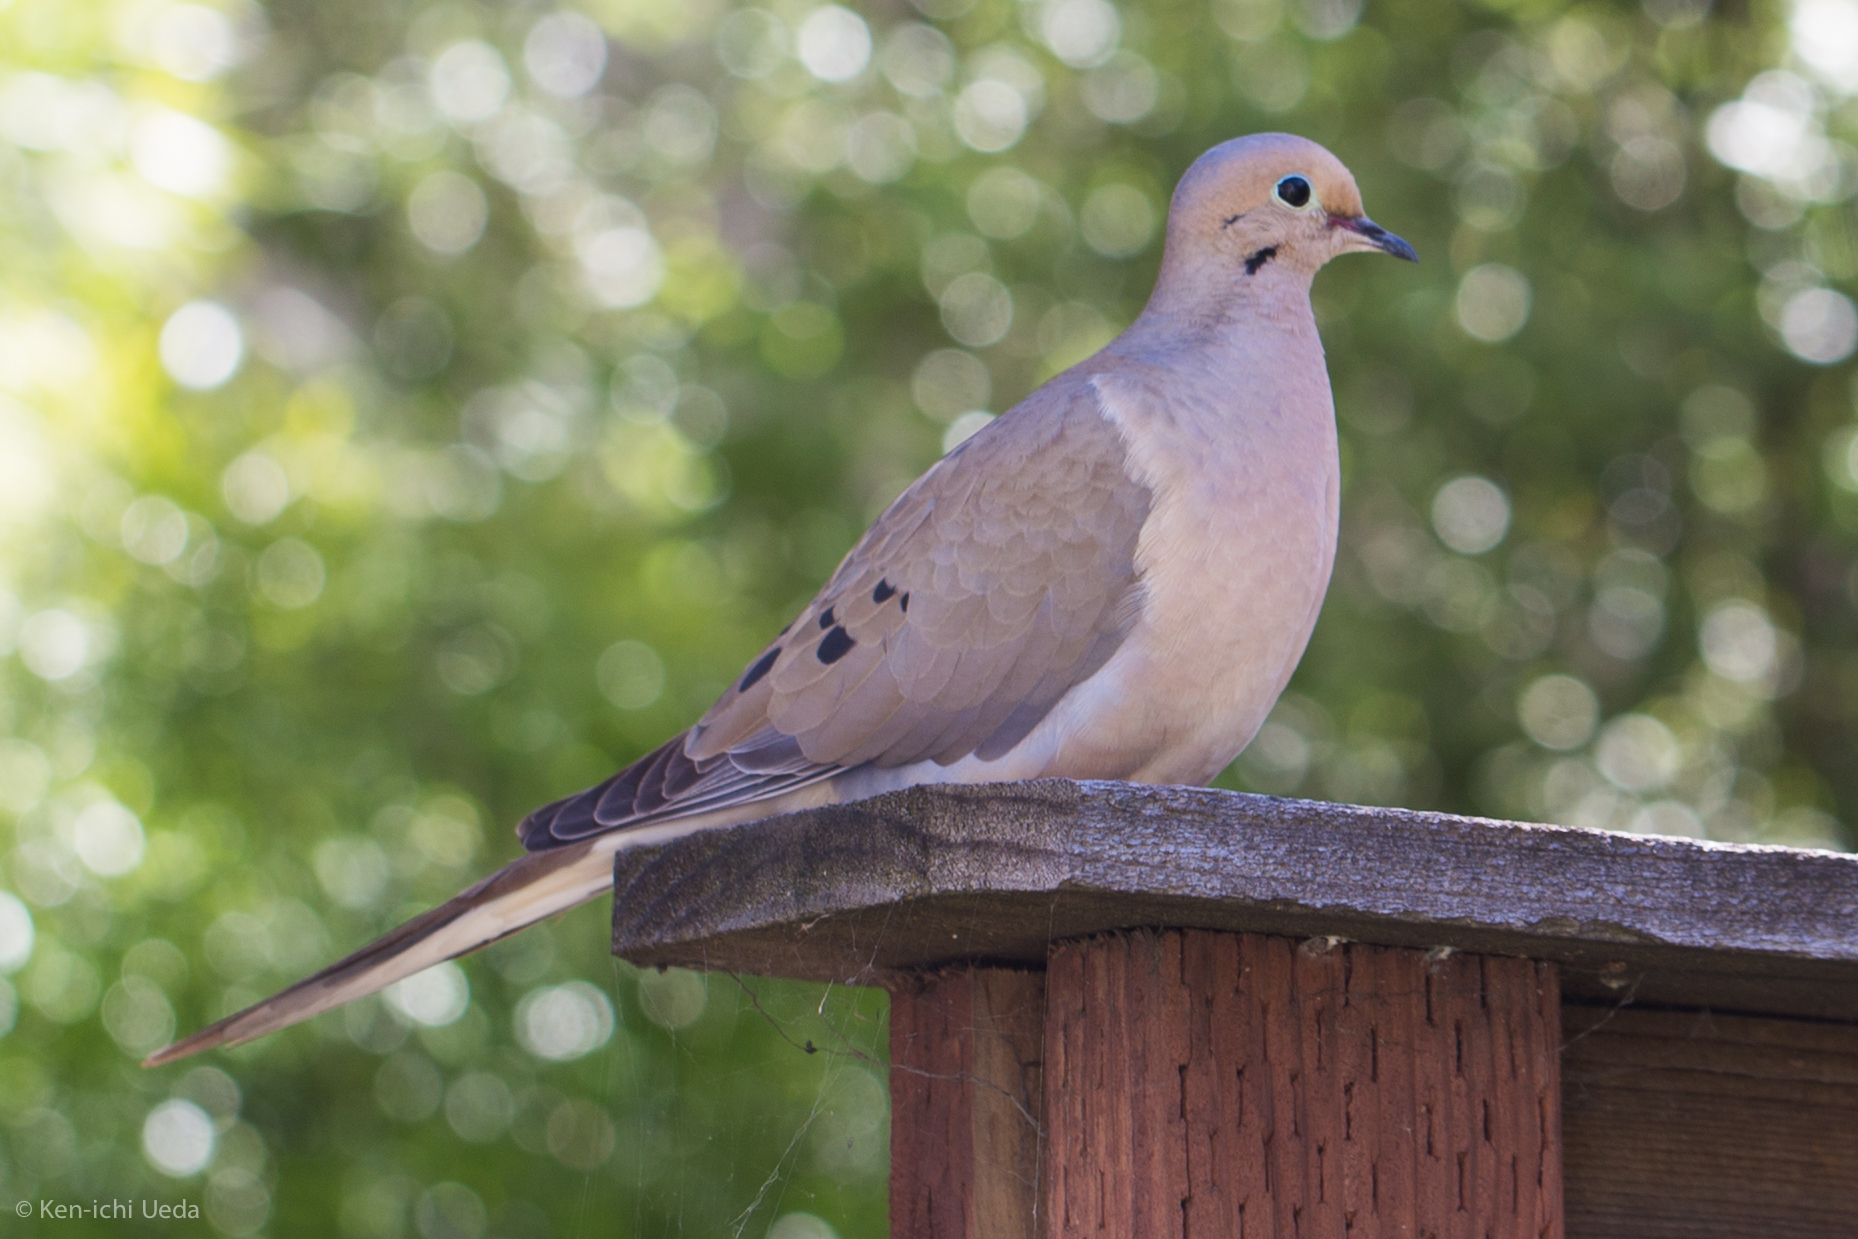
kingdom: Animalia
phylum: Chordata
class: Aves
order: Columbiformes
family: Columbidae
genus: Zenaida
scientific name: Zenaida macroura
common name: Mourning dove
